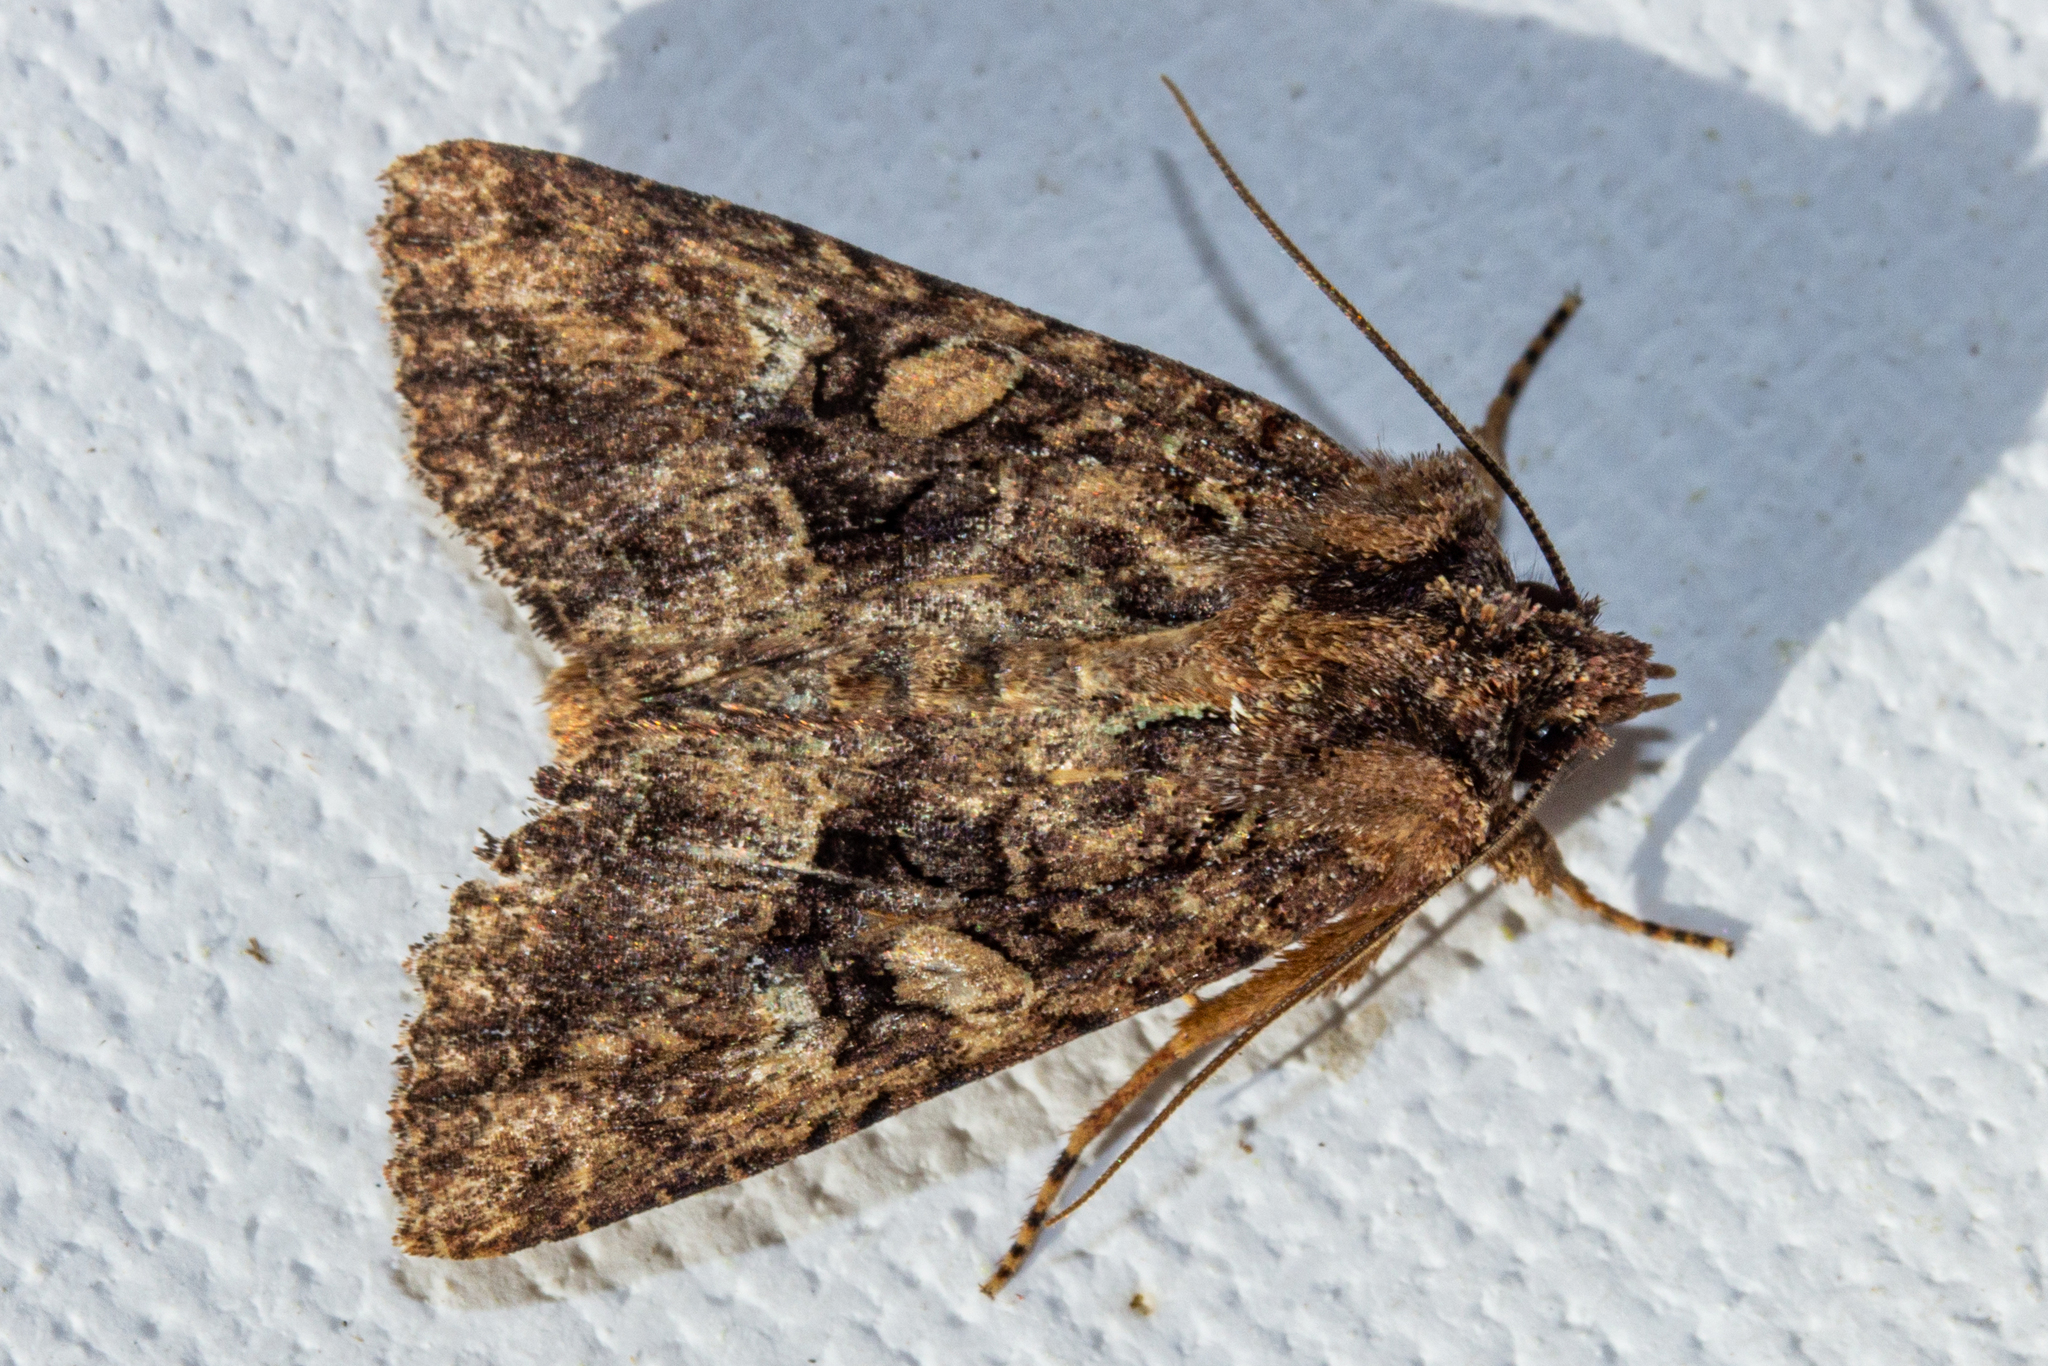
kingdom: Animalia
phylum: Arthropoda
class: Insecta
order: Lepidoptera
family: Noctuidae
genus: Meterana
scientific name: Meterana ochthistis
